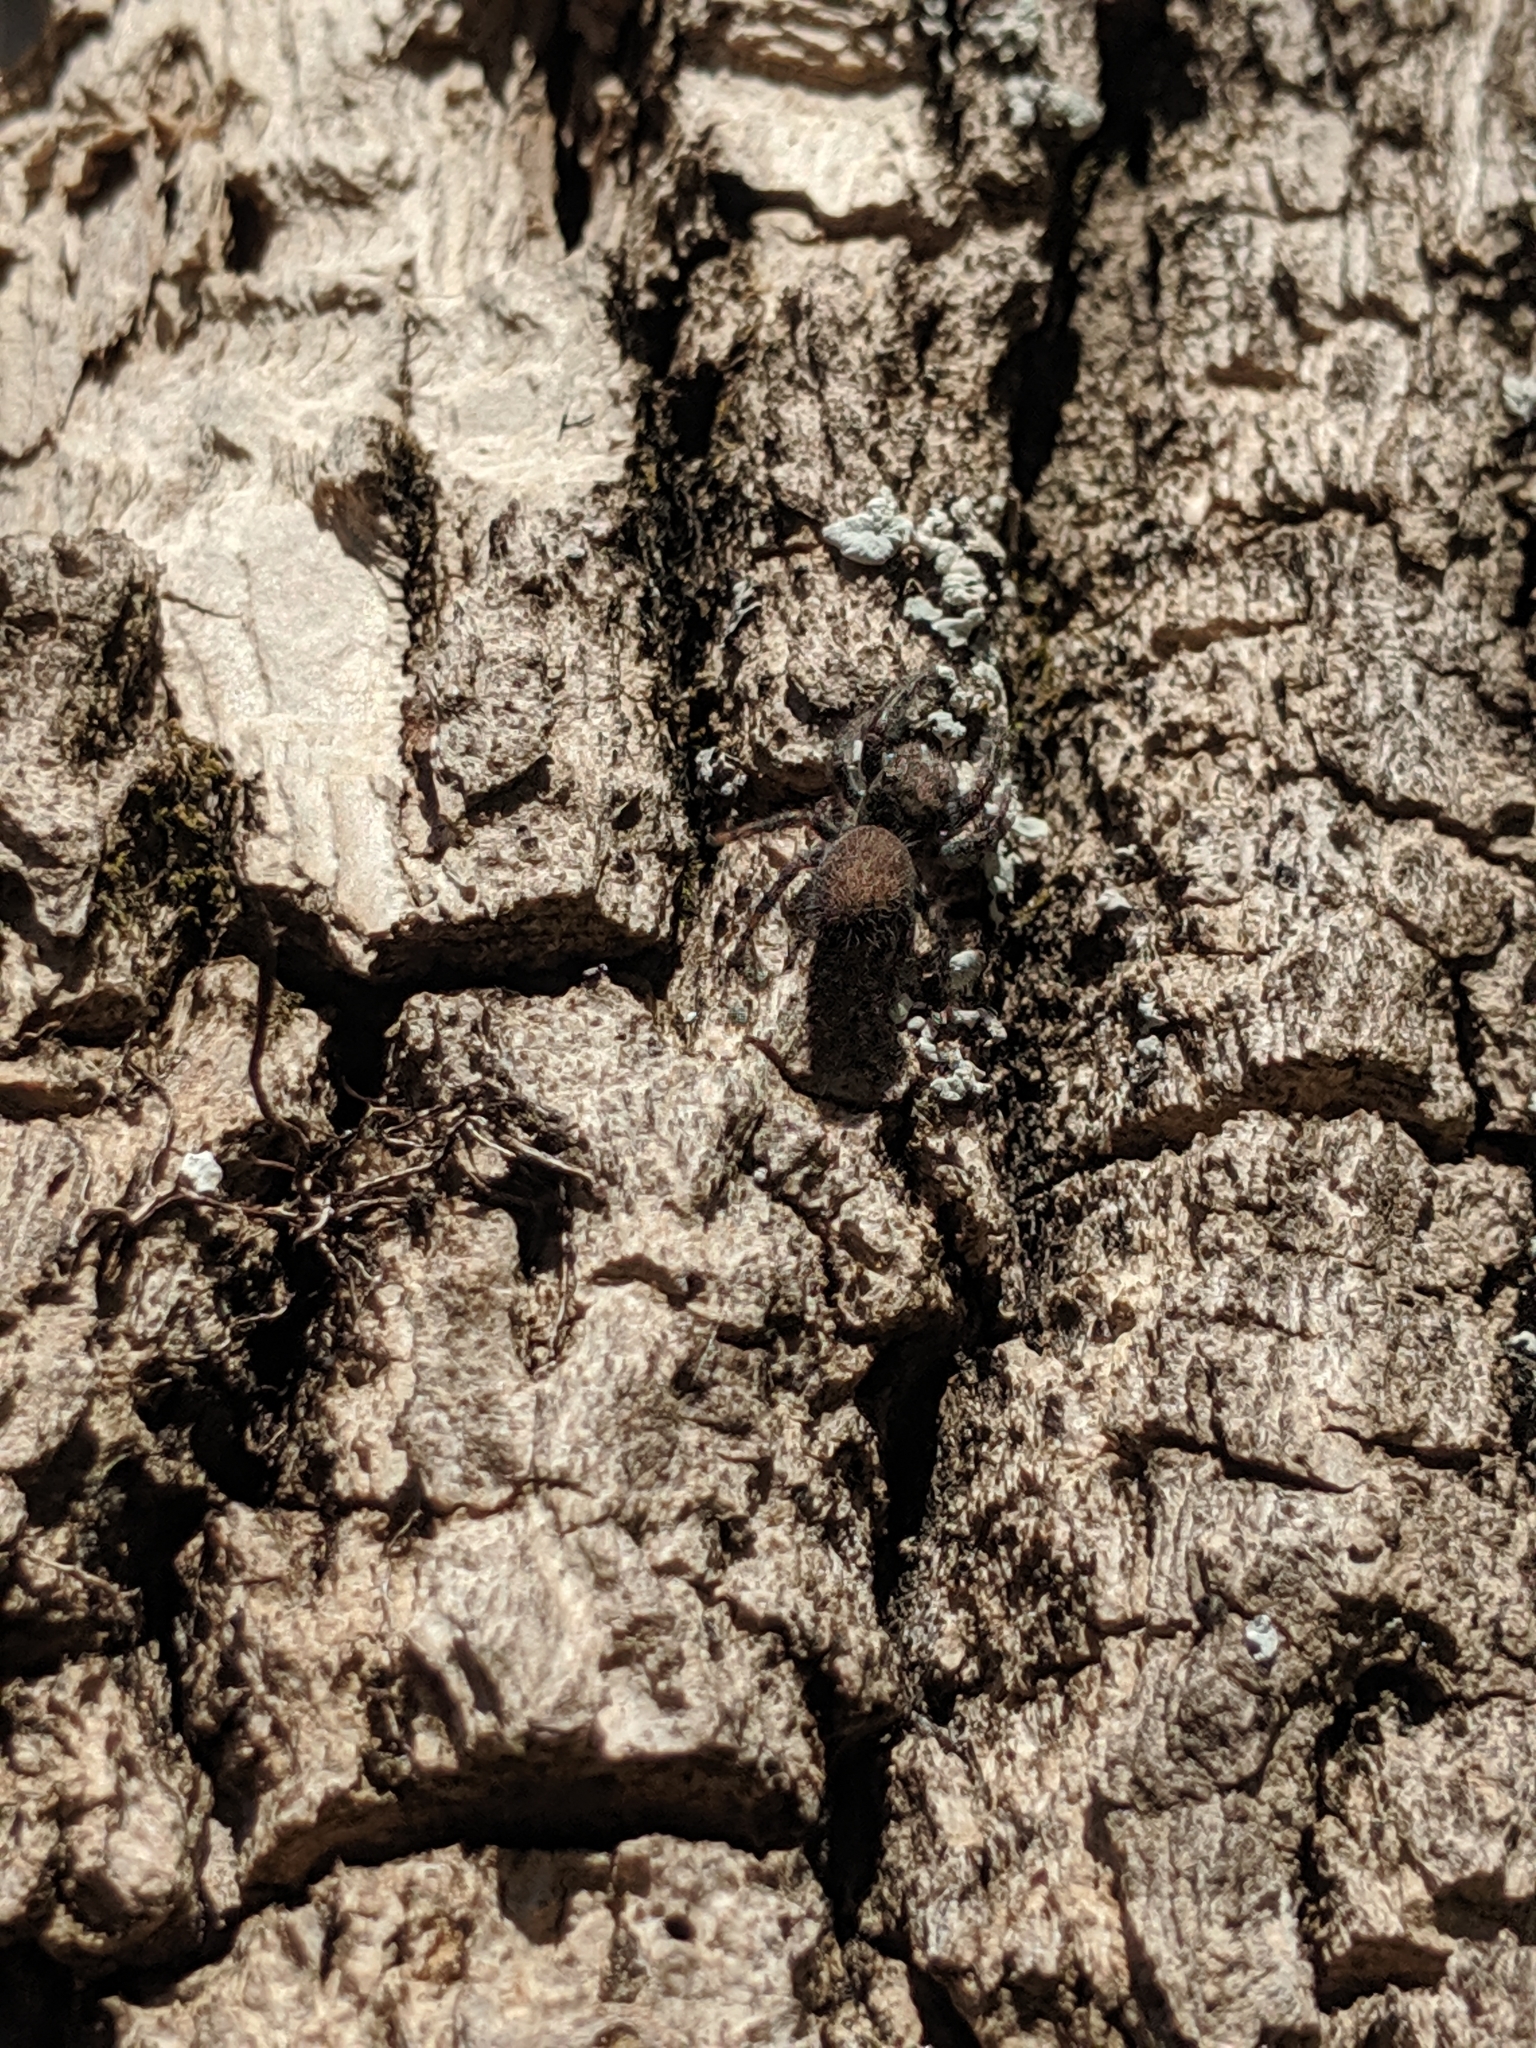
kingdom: Animalia
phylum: Arthropoda
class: Arachnida
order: Araneae
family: Salticidae
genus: Phidippus
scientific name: Phidippus princeps
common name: Grayish jumping spider
